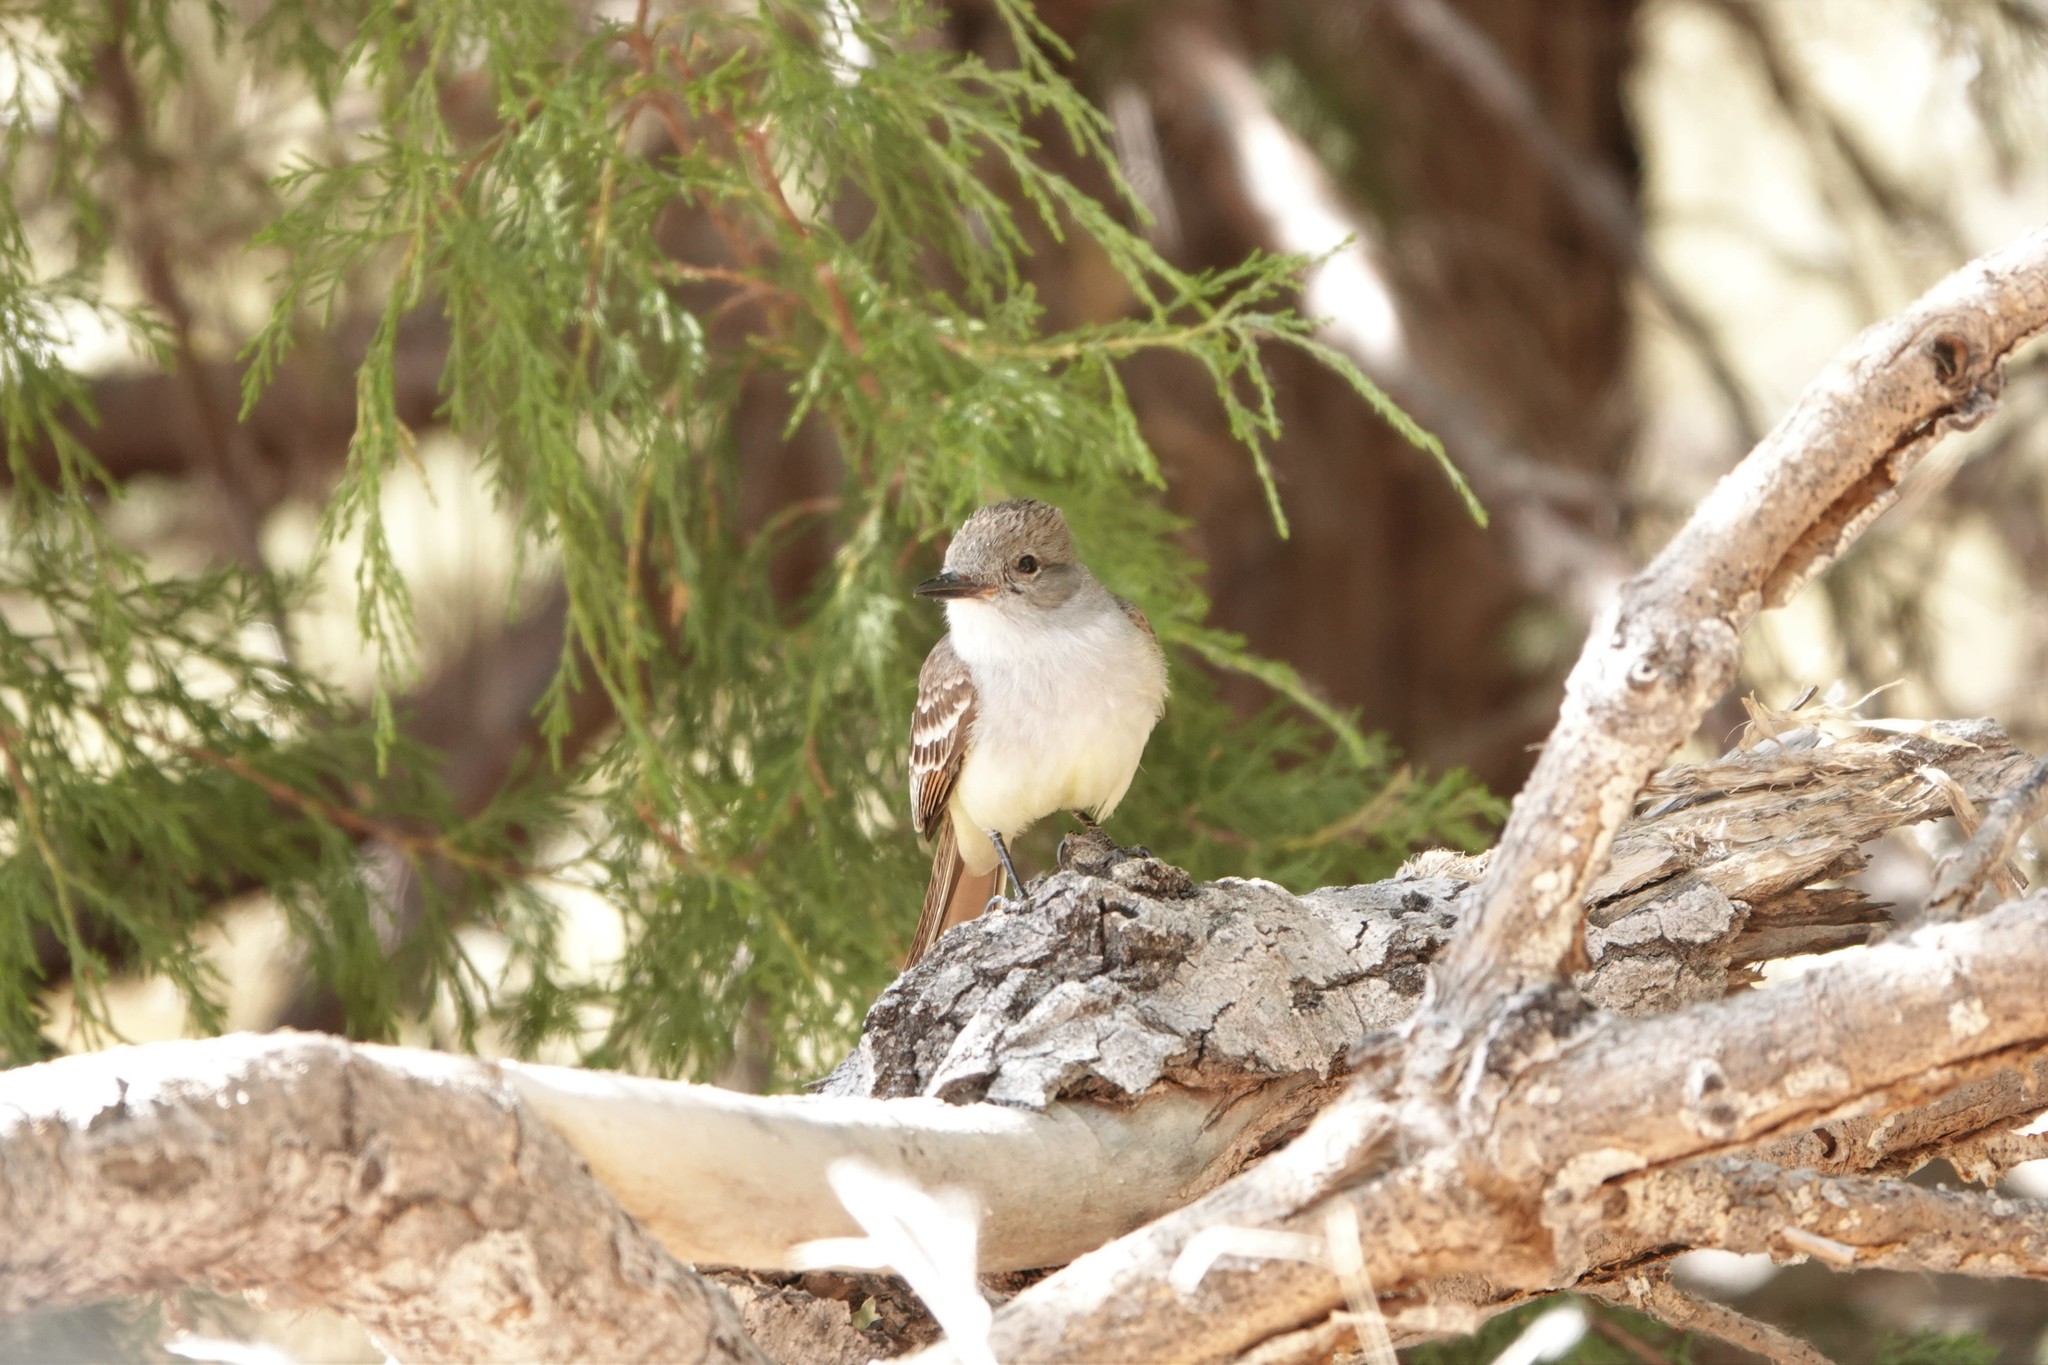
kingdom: Animalia
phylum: Chordata
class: Aves
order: Passeriformes
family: Tyrannidae
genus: Myiarchus
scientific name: Myiarchus cinerascens
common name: Ash-throated flycatcher
